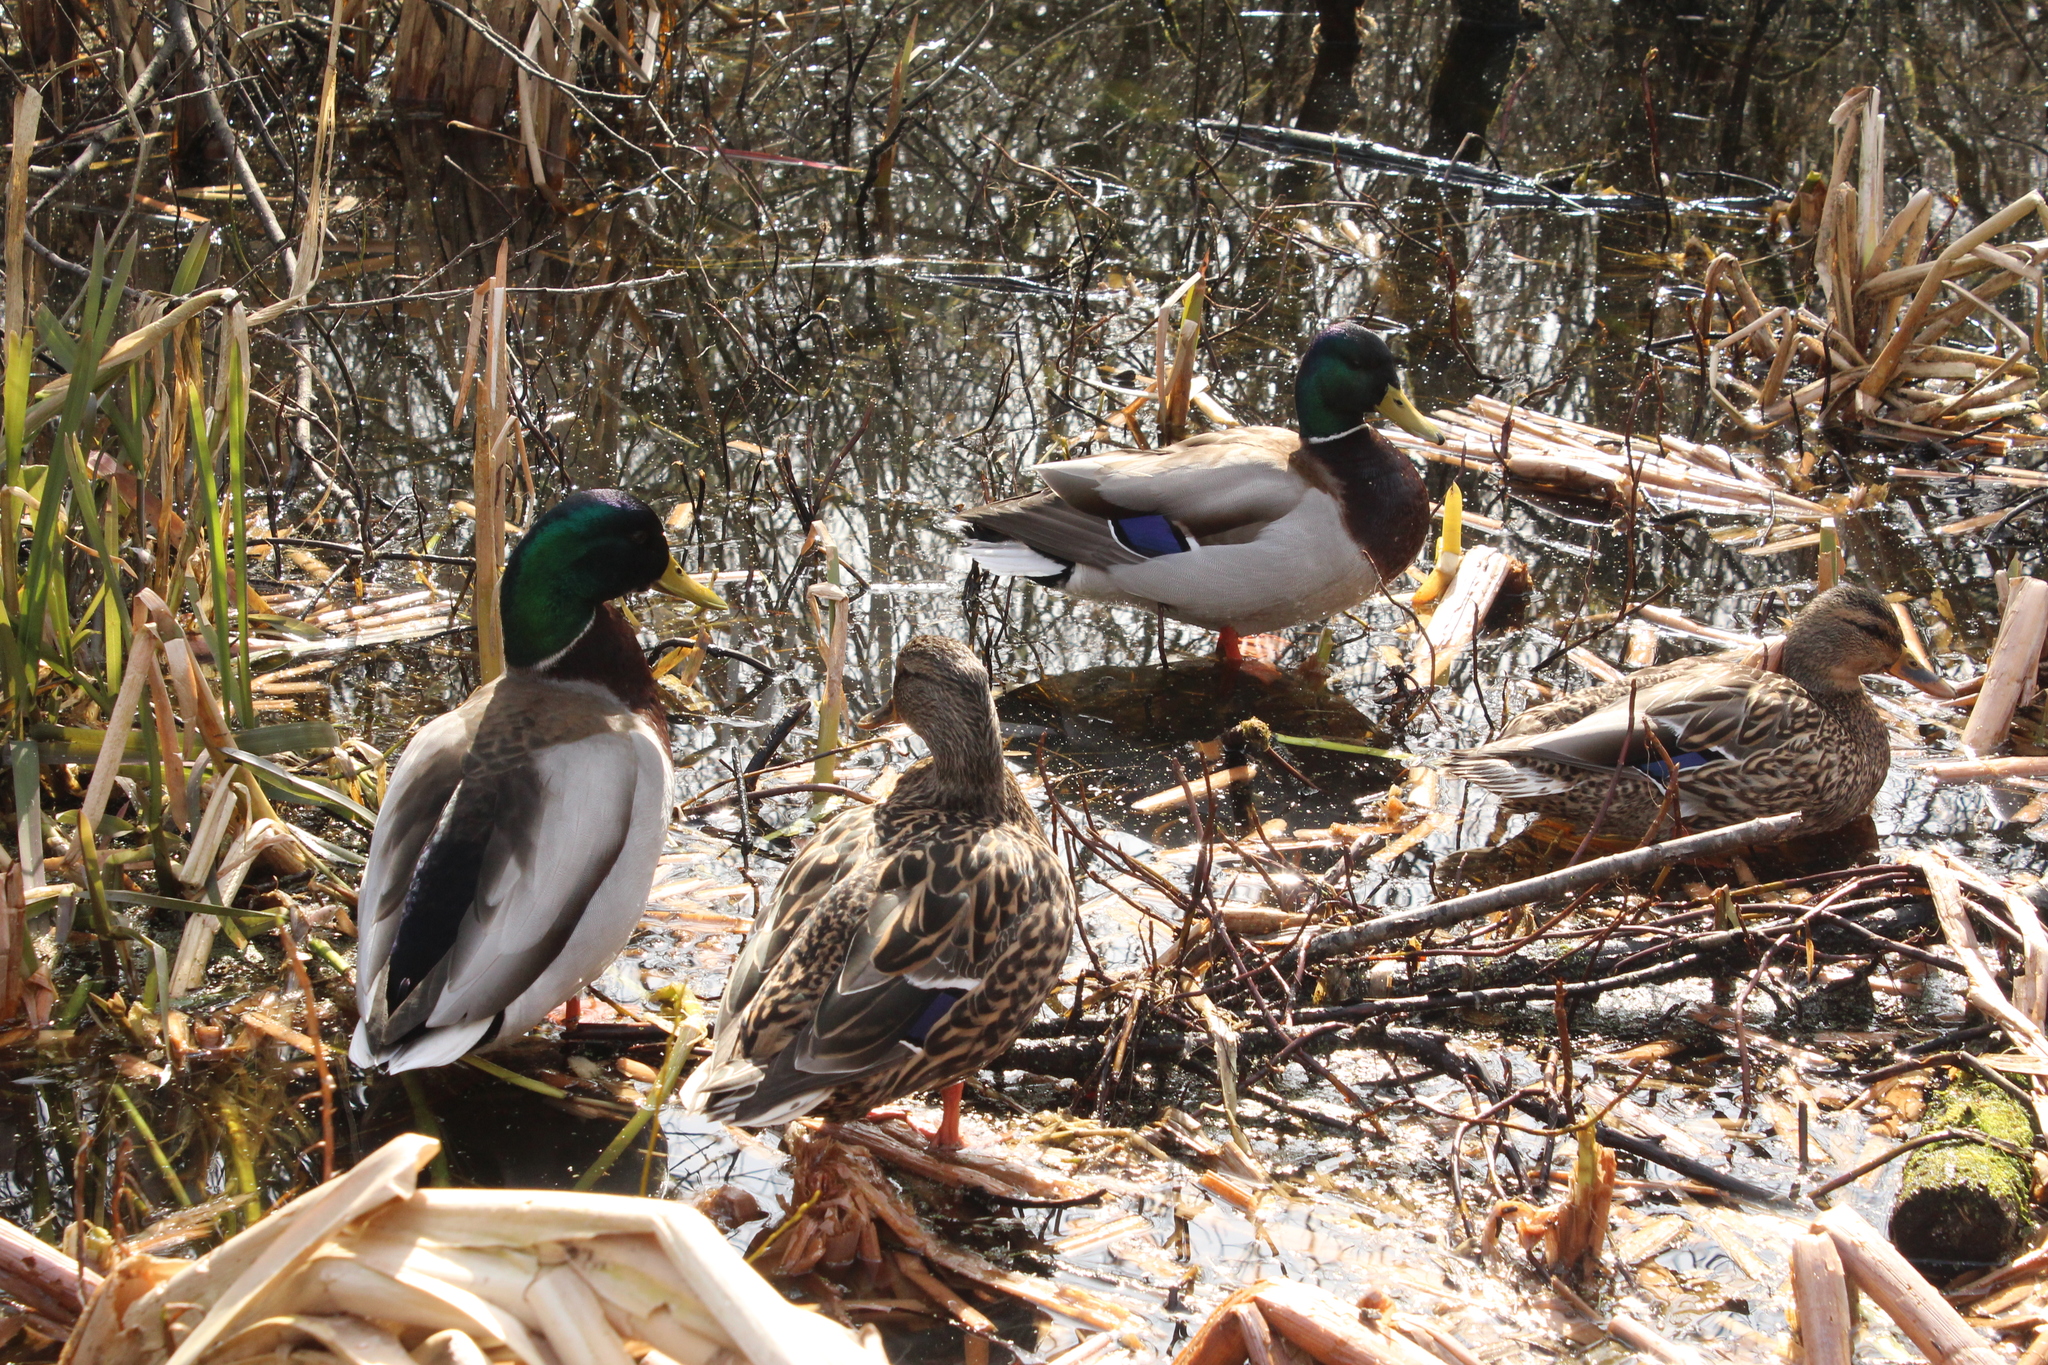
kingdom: Animalia
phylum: Chordata
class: Aves
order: Anseriformes
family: Anatidae
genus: Anas
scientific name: Anas platyrhynchos
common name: Mallard
